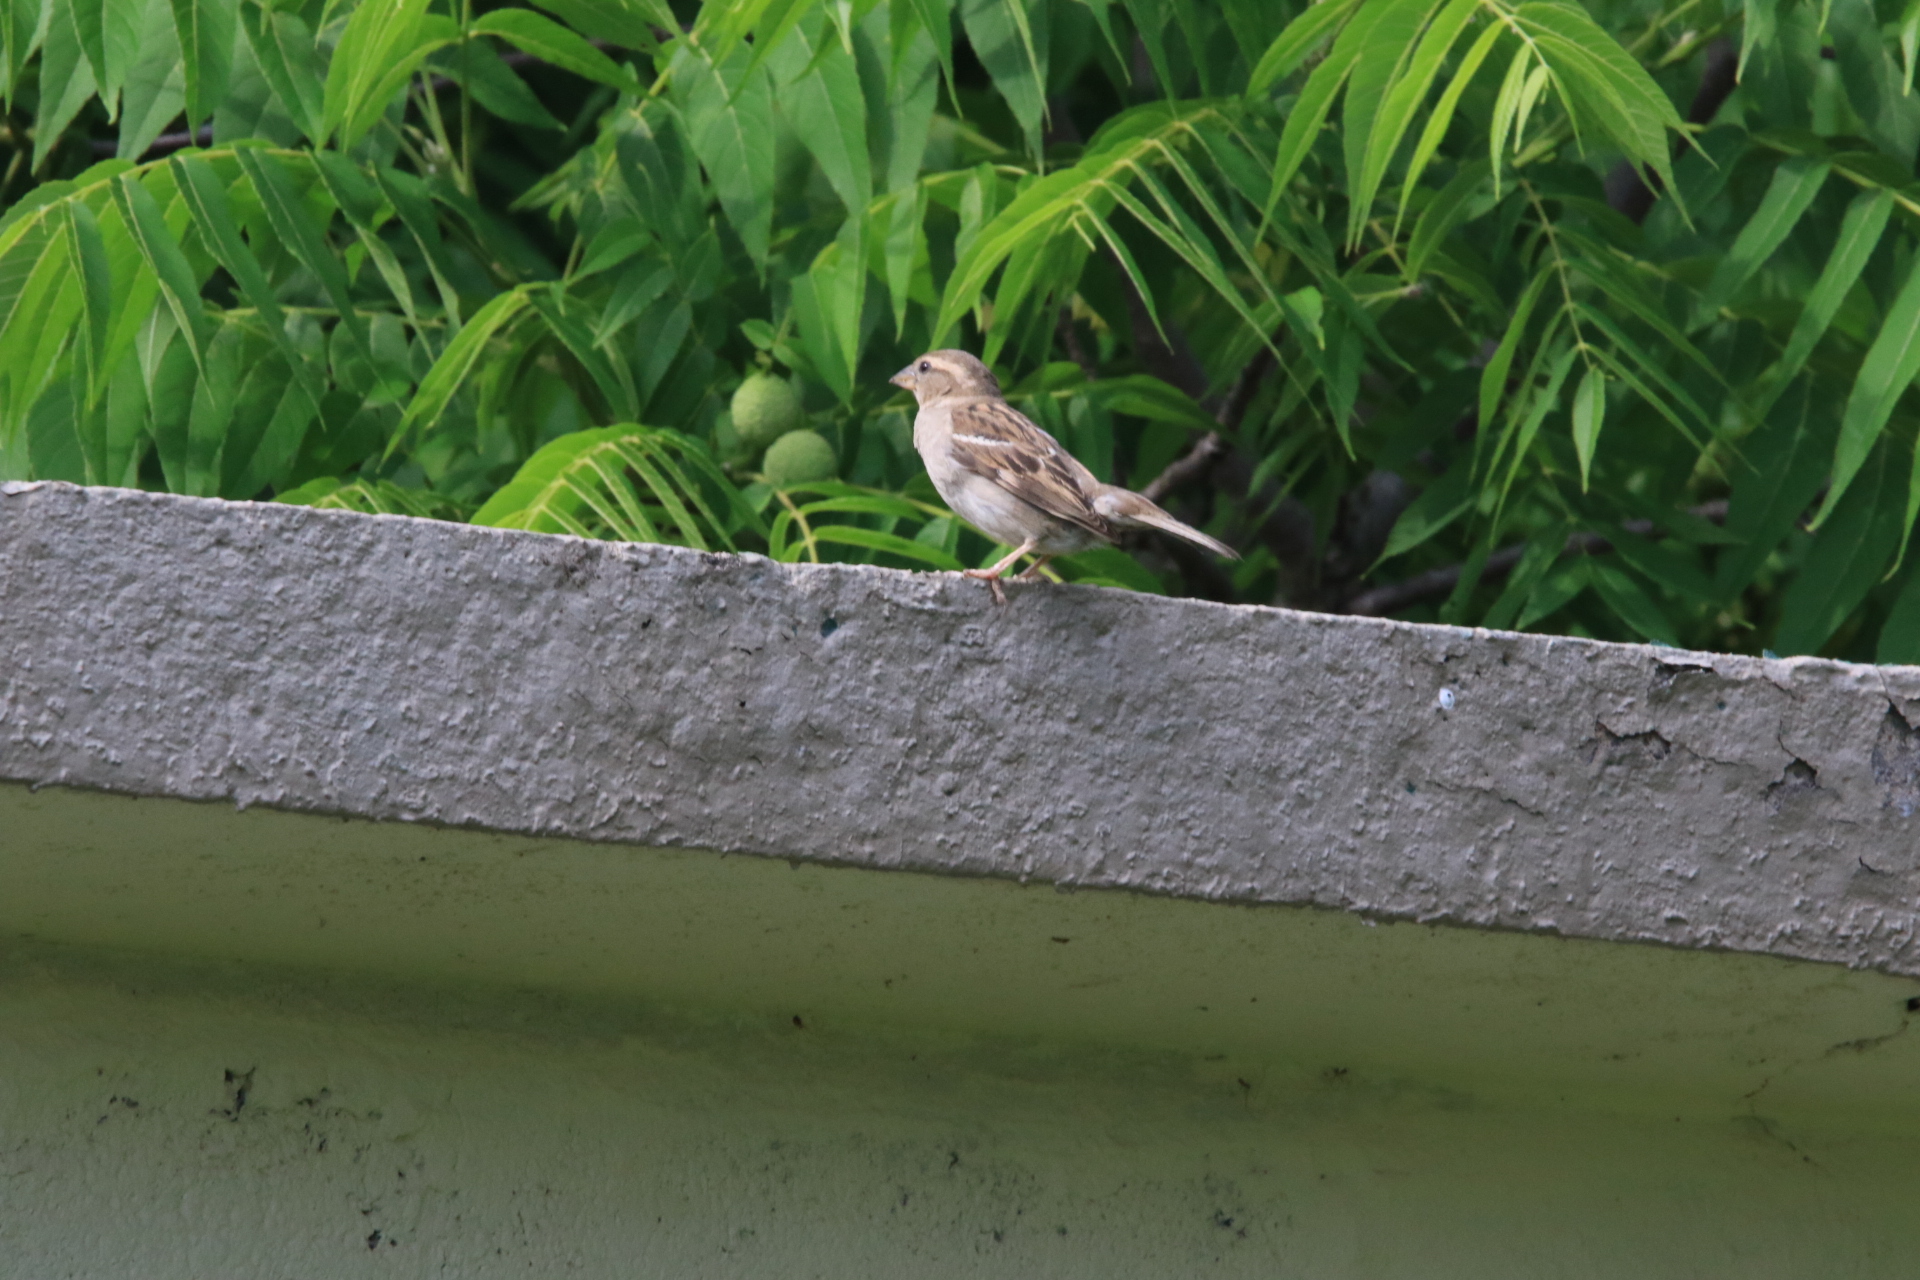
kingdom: Animalia
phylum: Chordata
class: Aves
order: Passeriformes
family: Passeridae
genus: Passer
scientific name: Passer domesticus
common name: House sparrow
